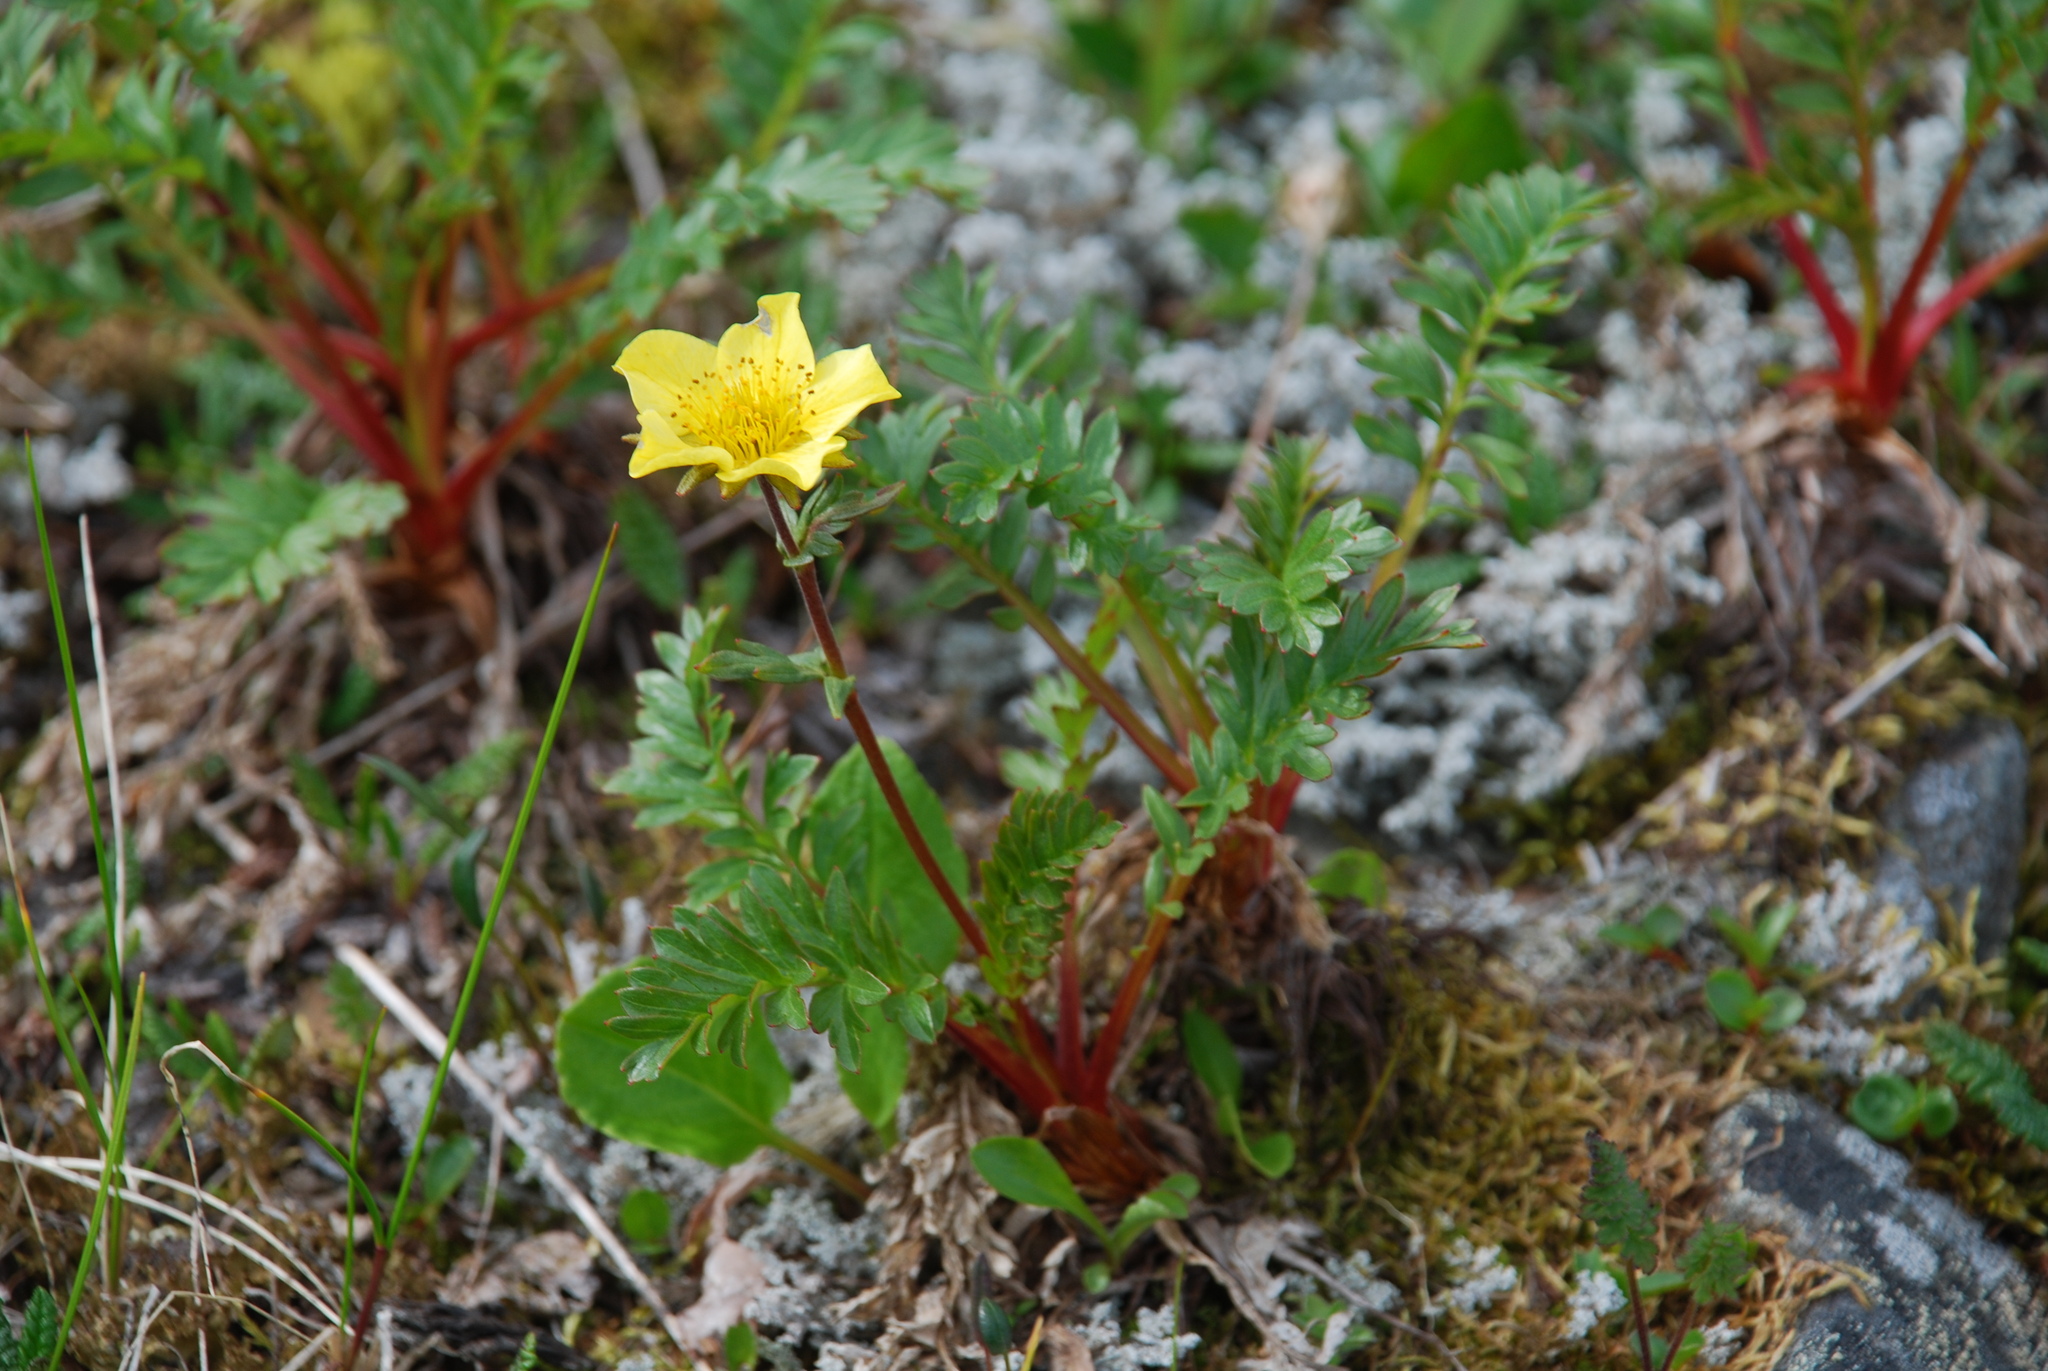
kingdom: Plantae
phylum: Tracheophyta
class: Magnoliopsida
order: Rosales
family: Rosaceae
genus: Geum
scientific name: Geum rossii
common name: Alpine avens
